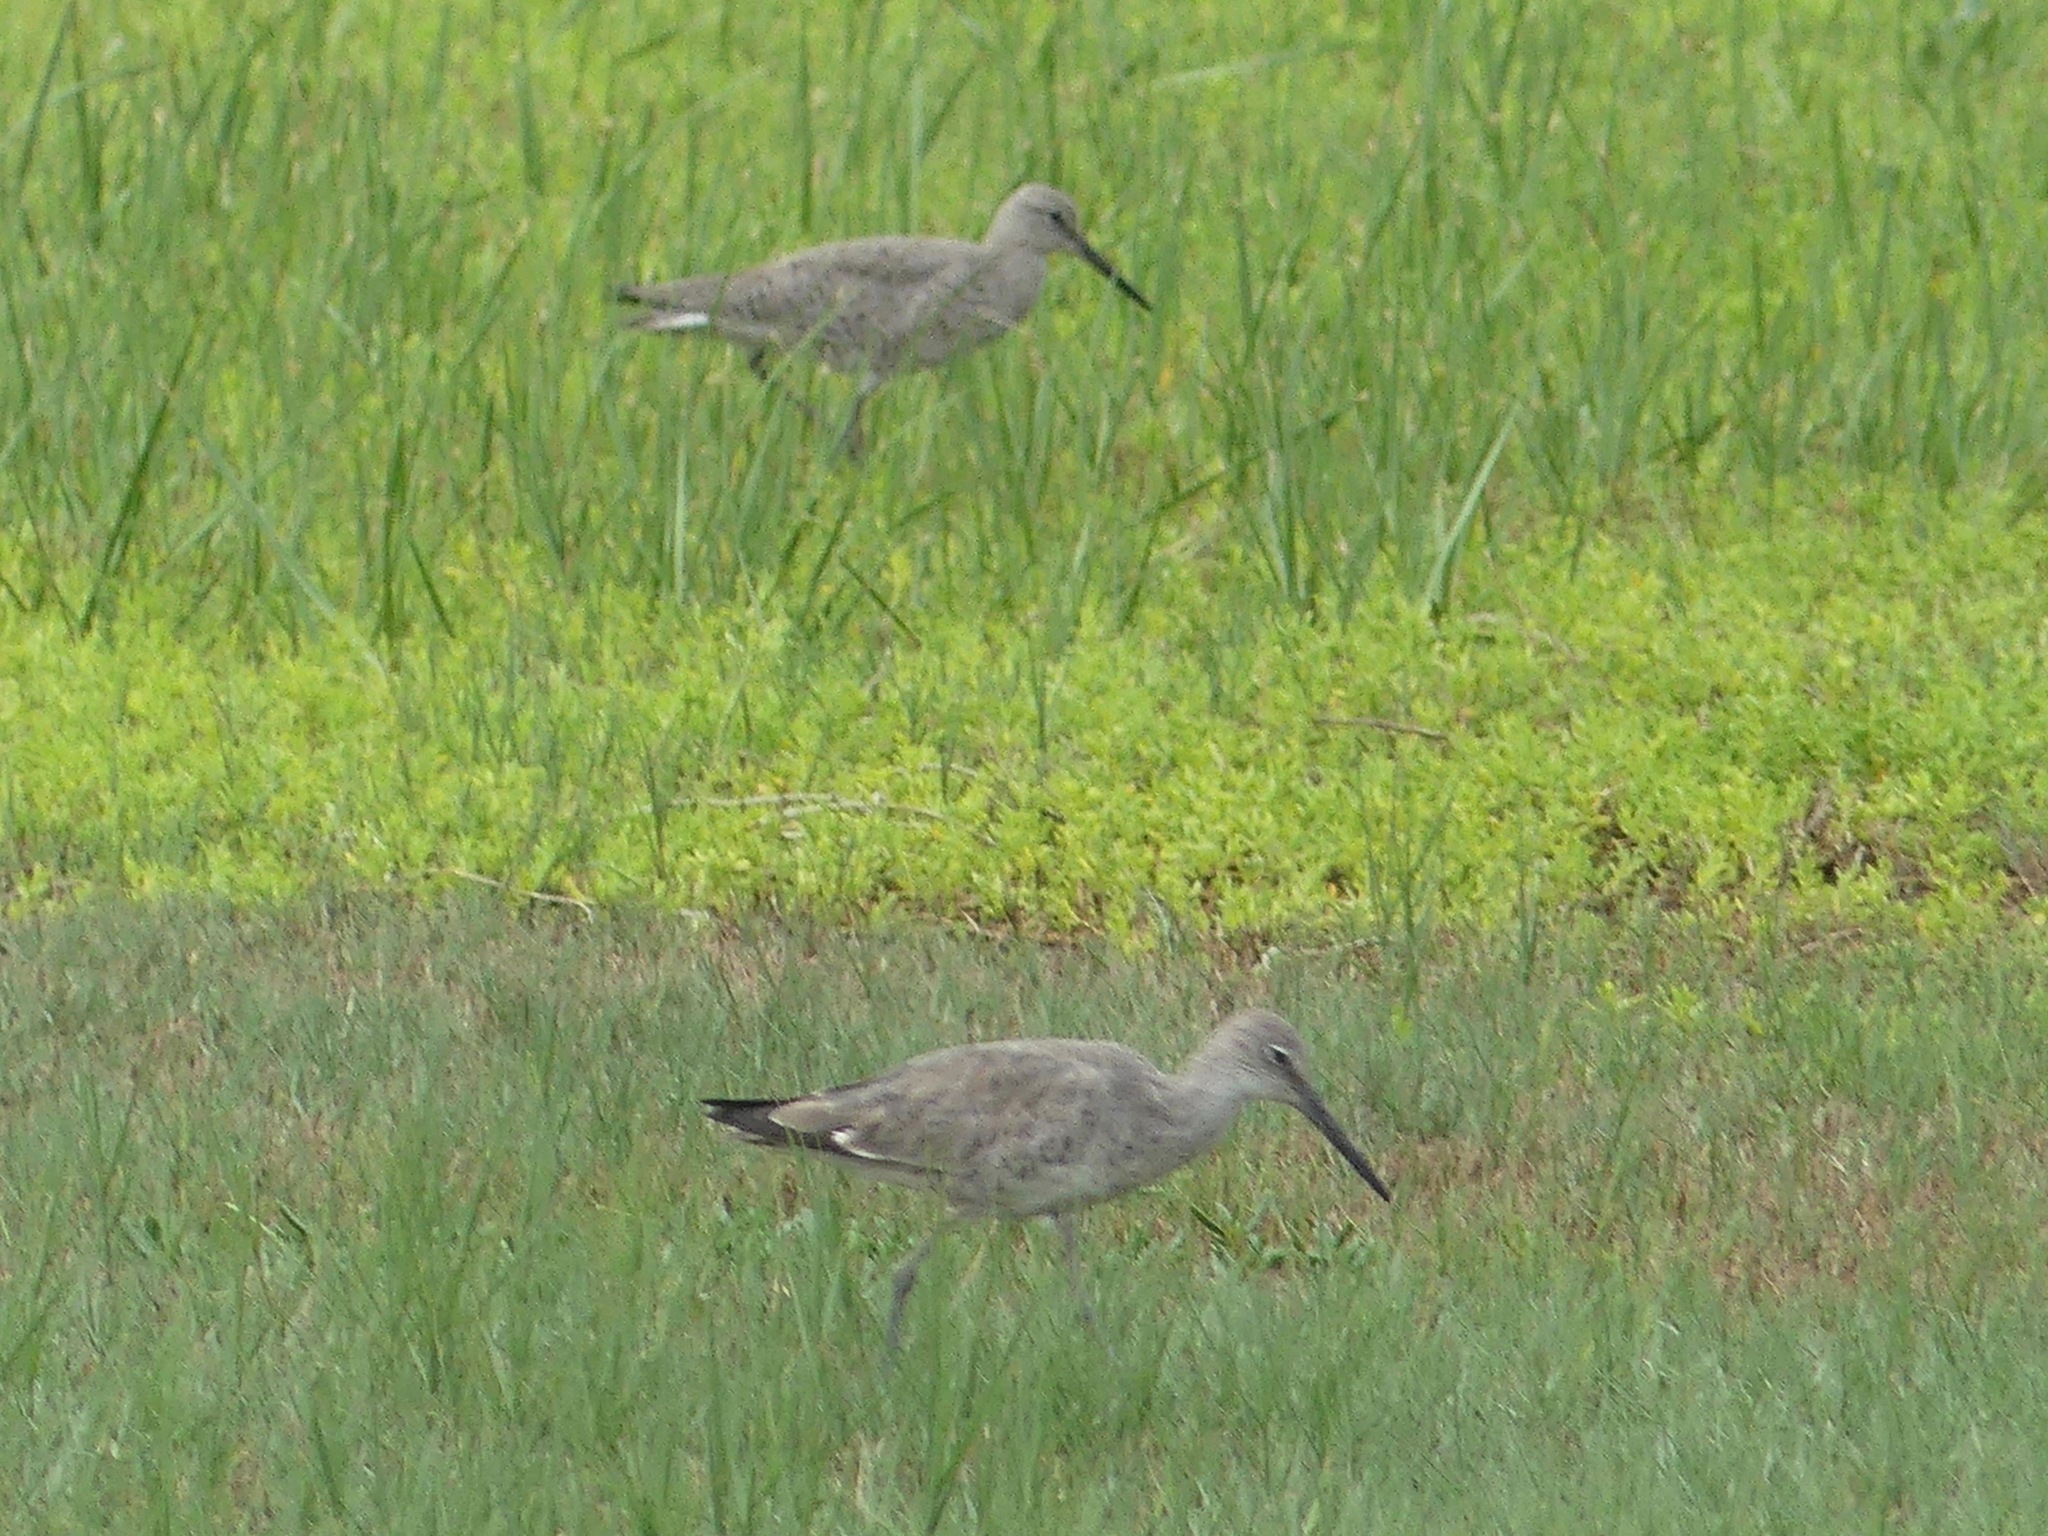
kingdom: Animalia
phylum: Chordata
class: Aves
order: Charadriiformes
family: Scolopacidae
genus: Tringa
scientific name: Tringa semipalmata
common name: Willet
